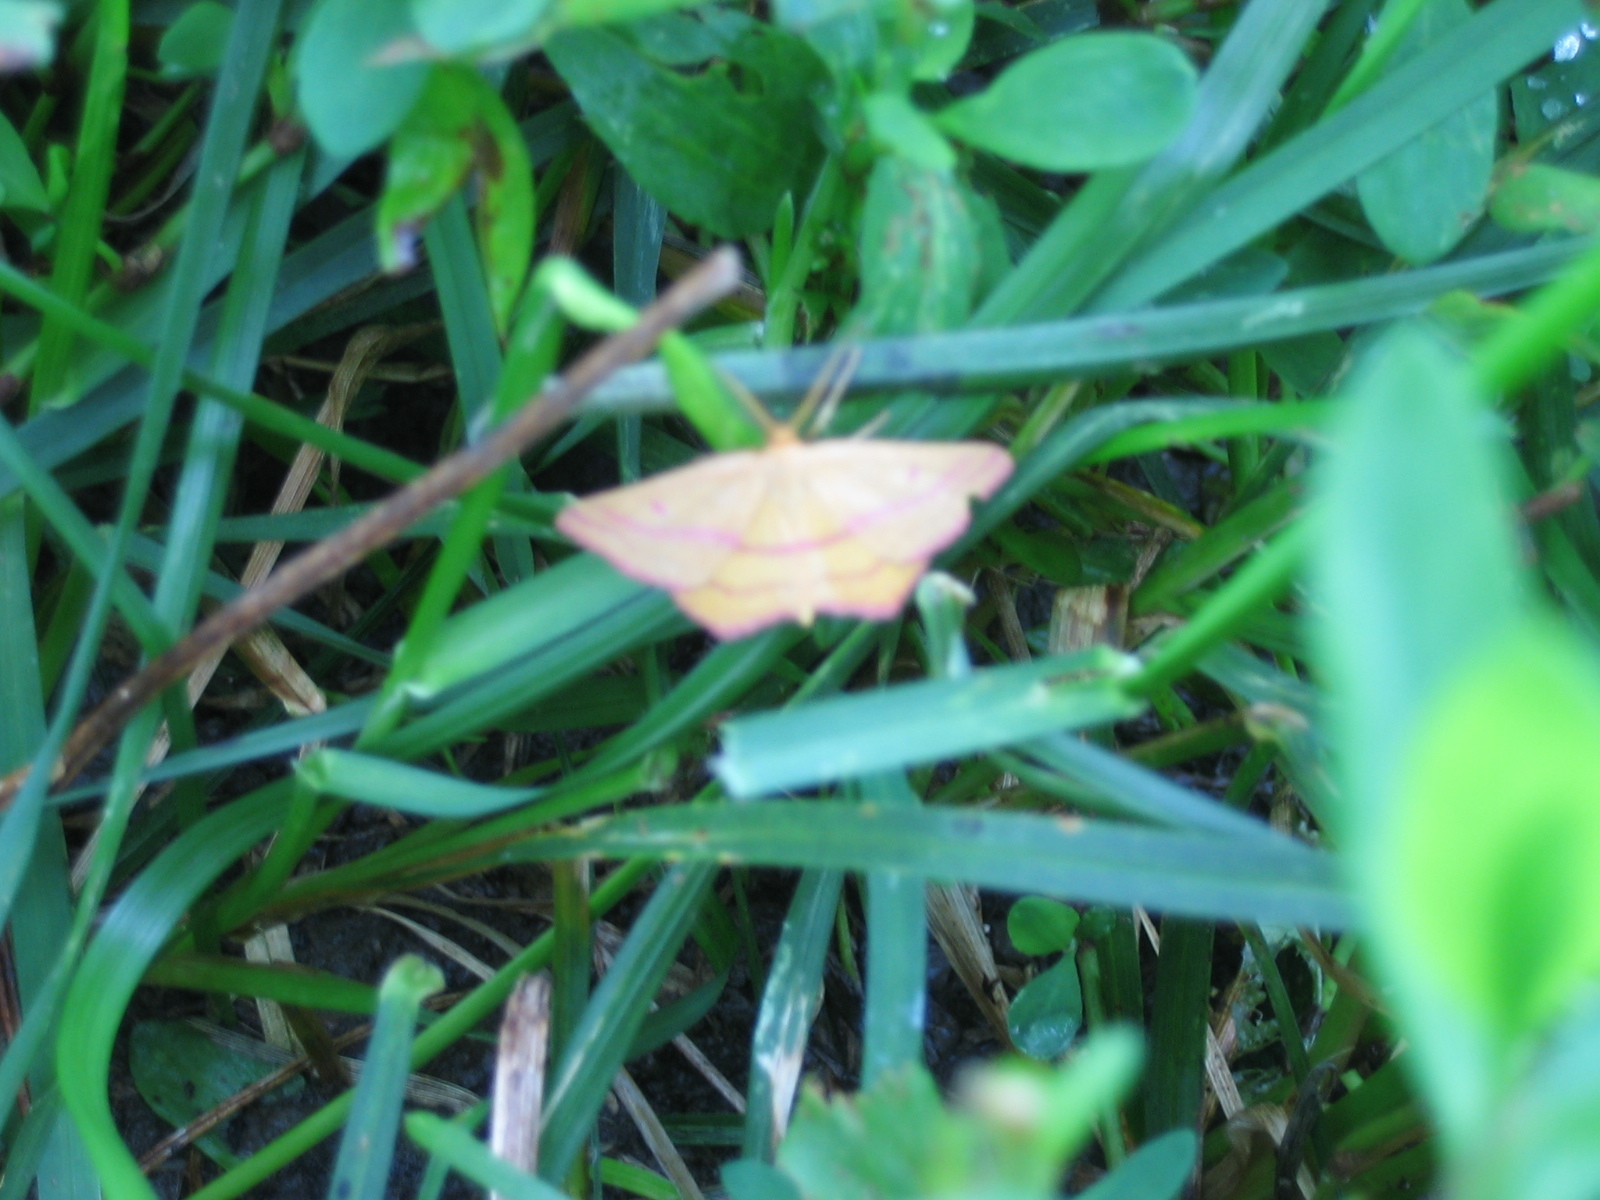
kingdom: Animalia
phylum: Arthropoda
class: Insecta
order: Lepidoptera
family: Geometridae
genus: Haematopis
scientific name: Haematopis grataria
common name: Chickweed geometer
